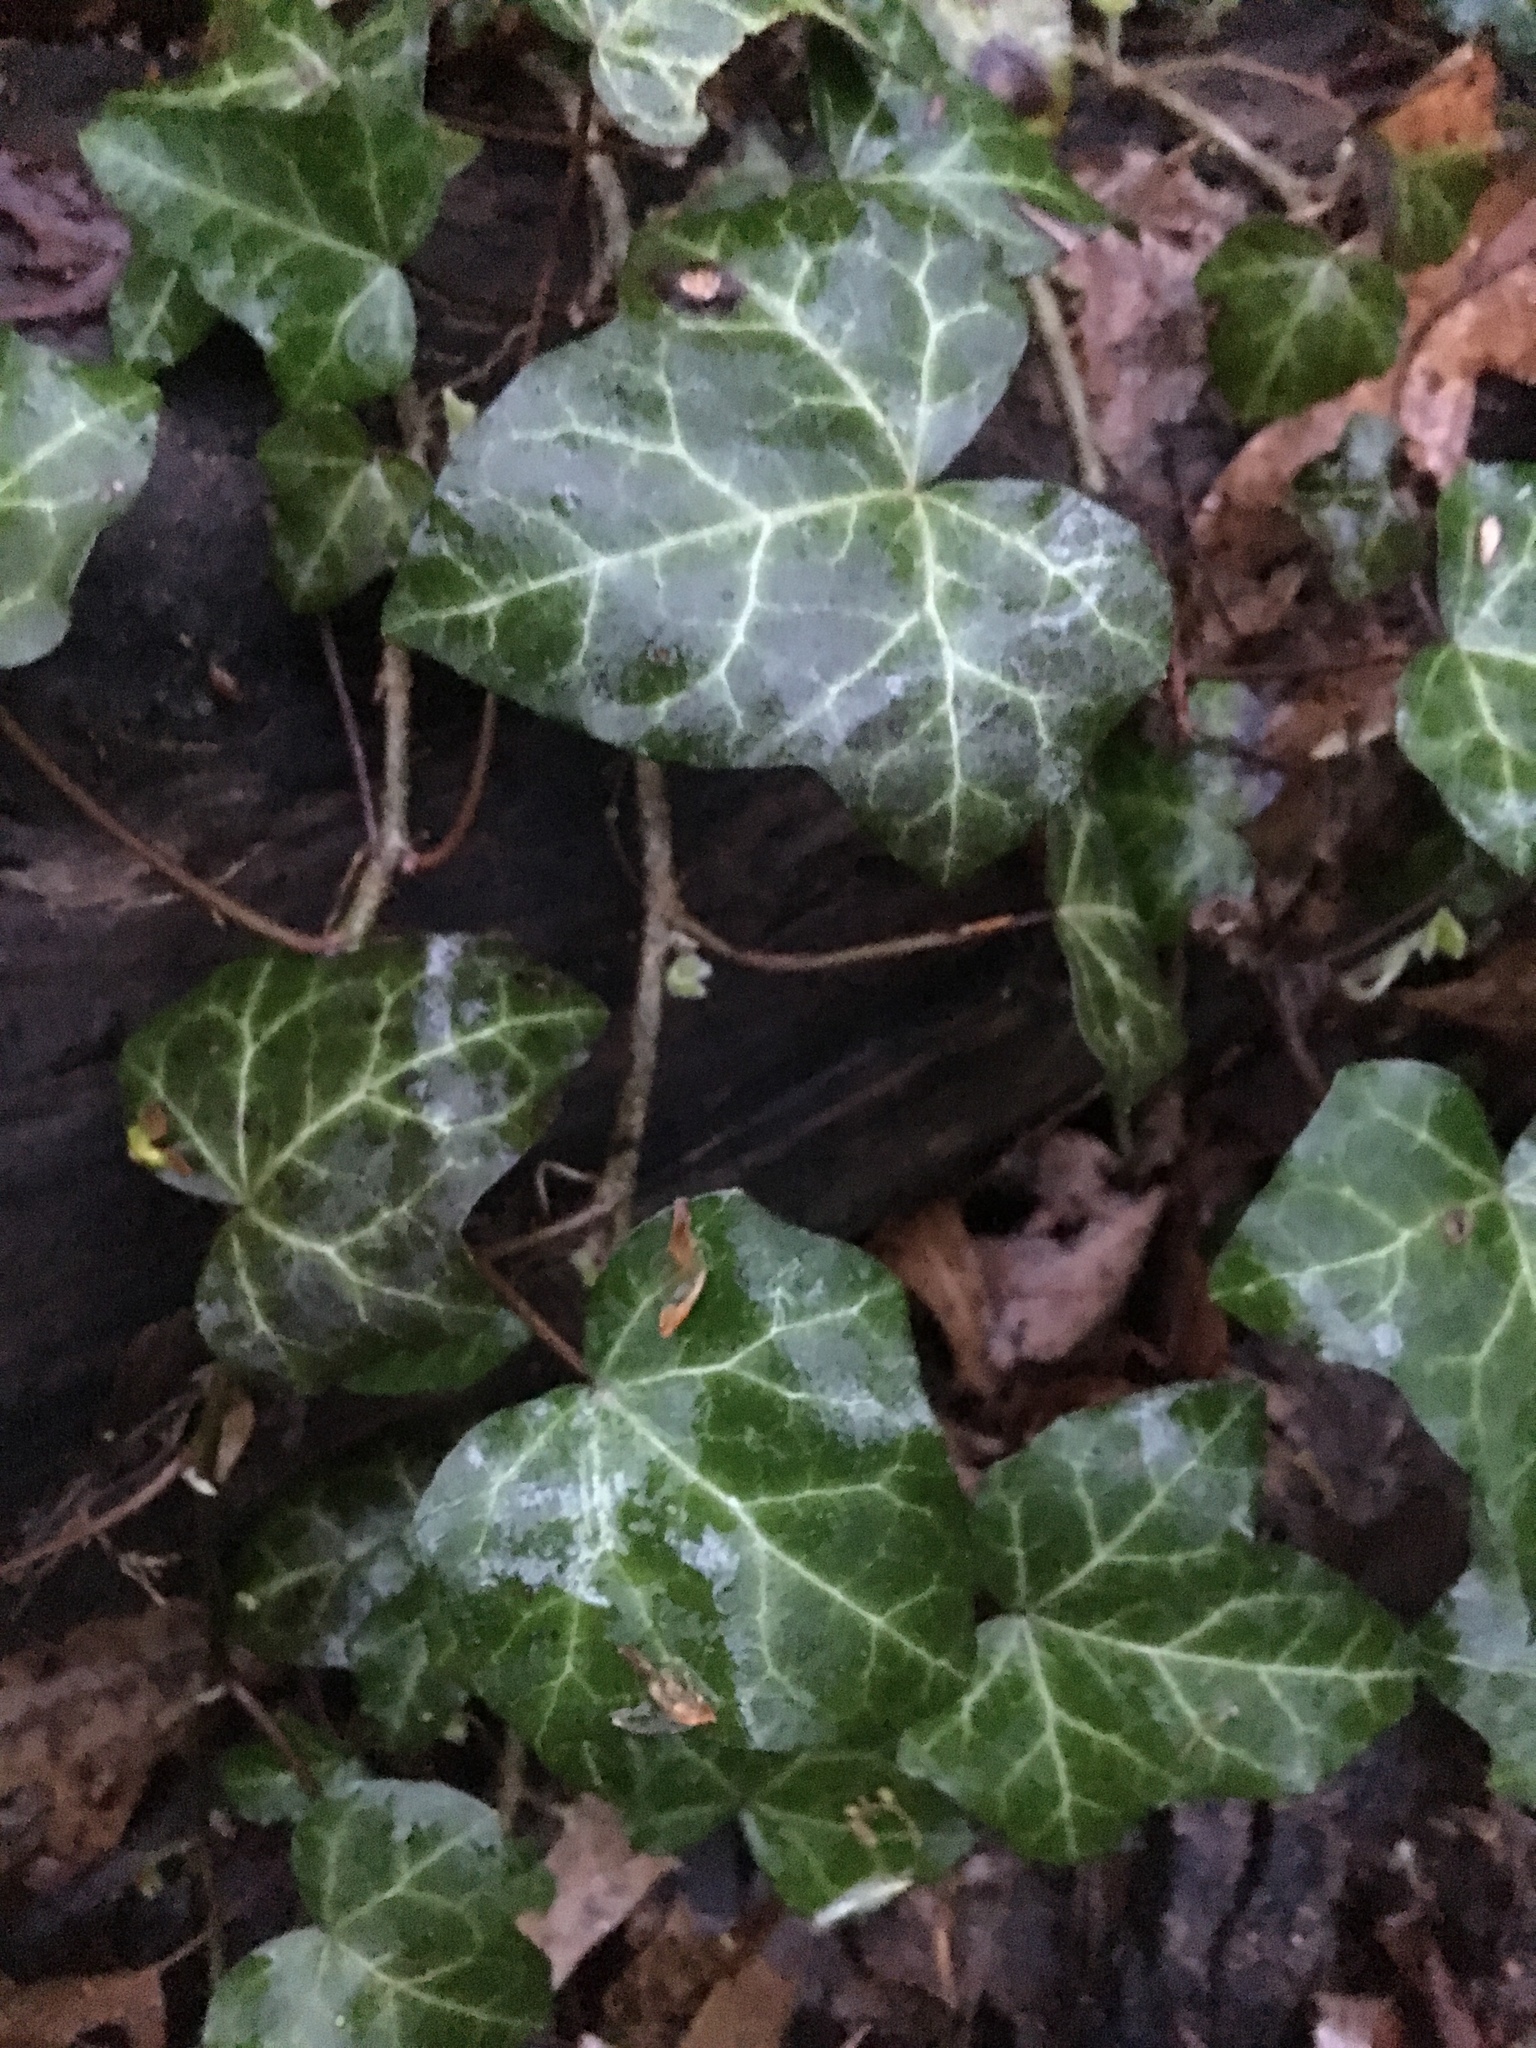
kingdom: Plantae
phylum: Tracheophyta
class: Magnoliopsida
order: Apiales
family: Araliaceae
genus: Hedera
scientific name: Hedera helix
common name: Ivy
